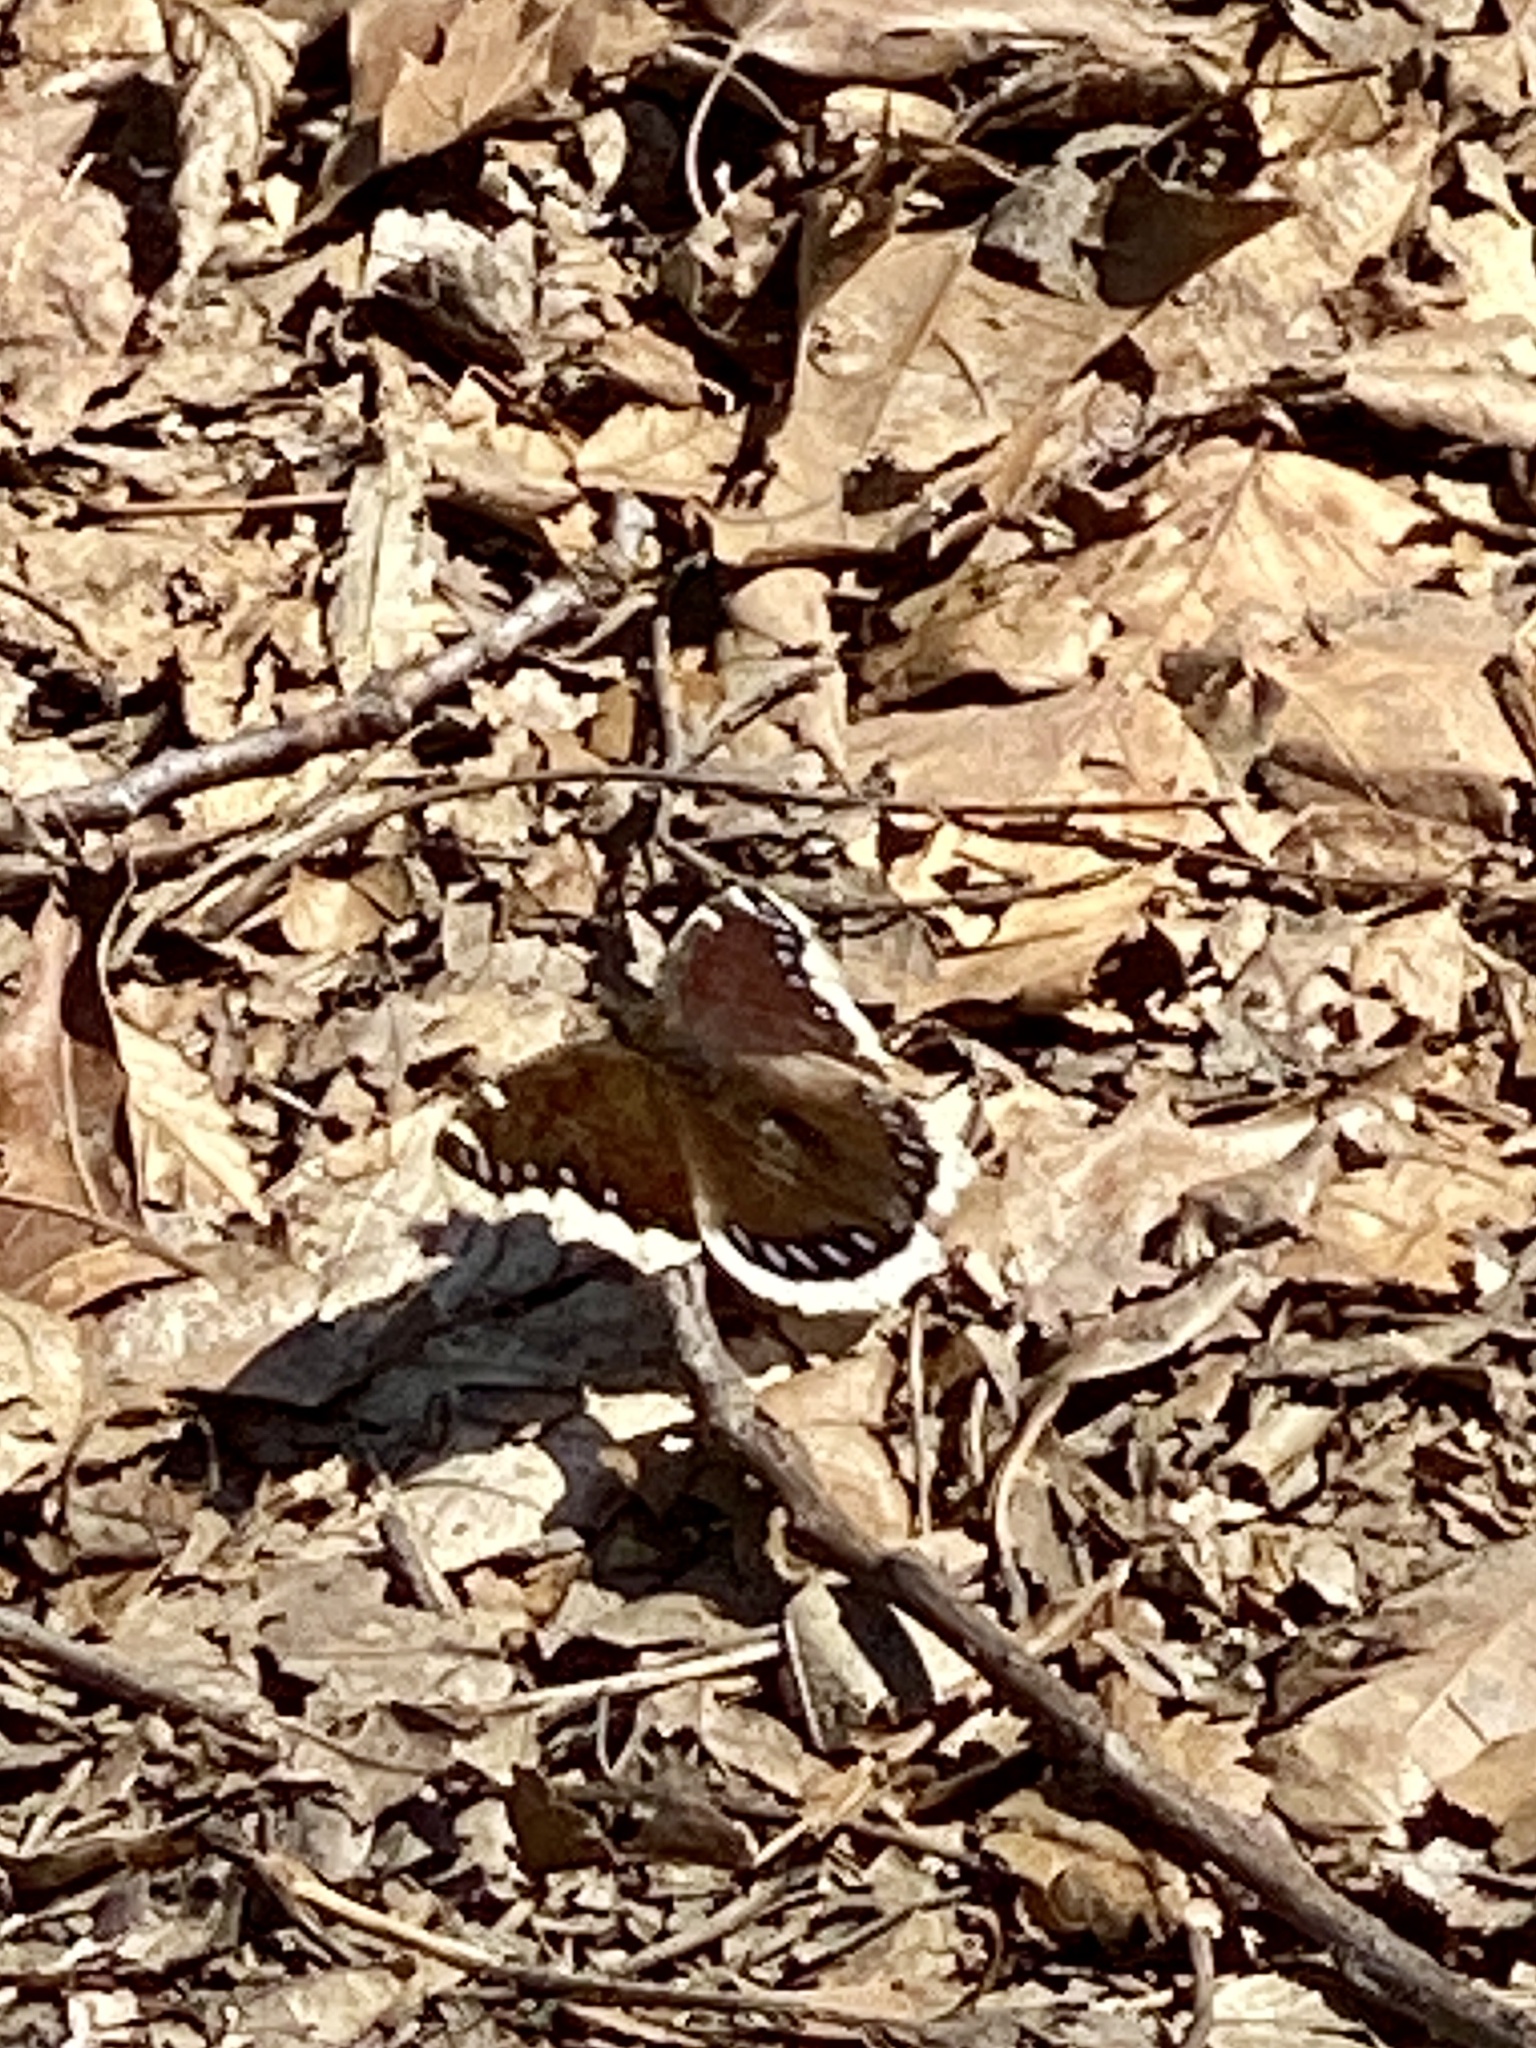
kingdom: Animalia
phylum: Arthropoda
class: Insecta
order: Lepidoptera
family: Nymphalidae
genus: Nymphalis
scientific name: Nymphalis antiopa
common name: Camberwell beauty
